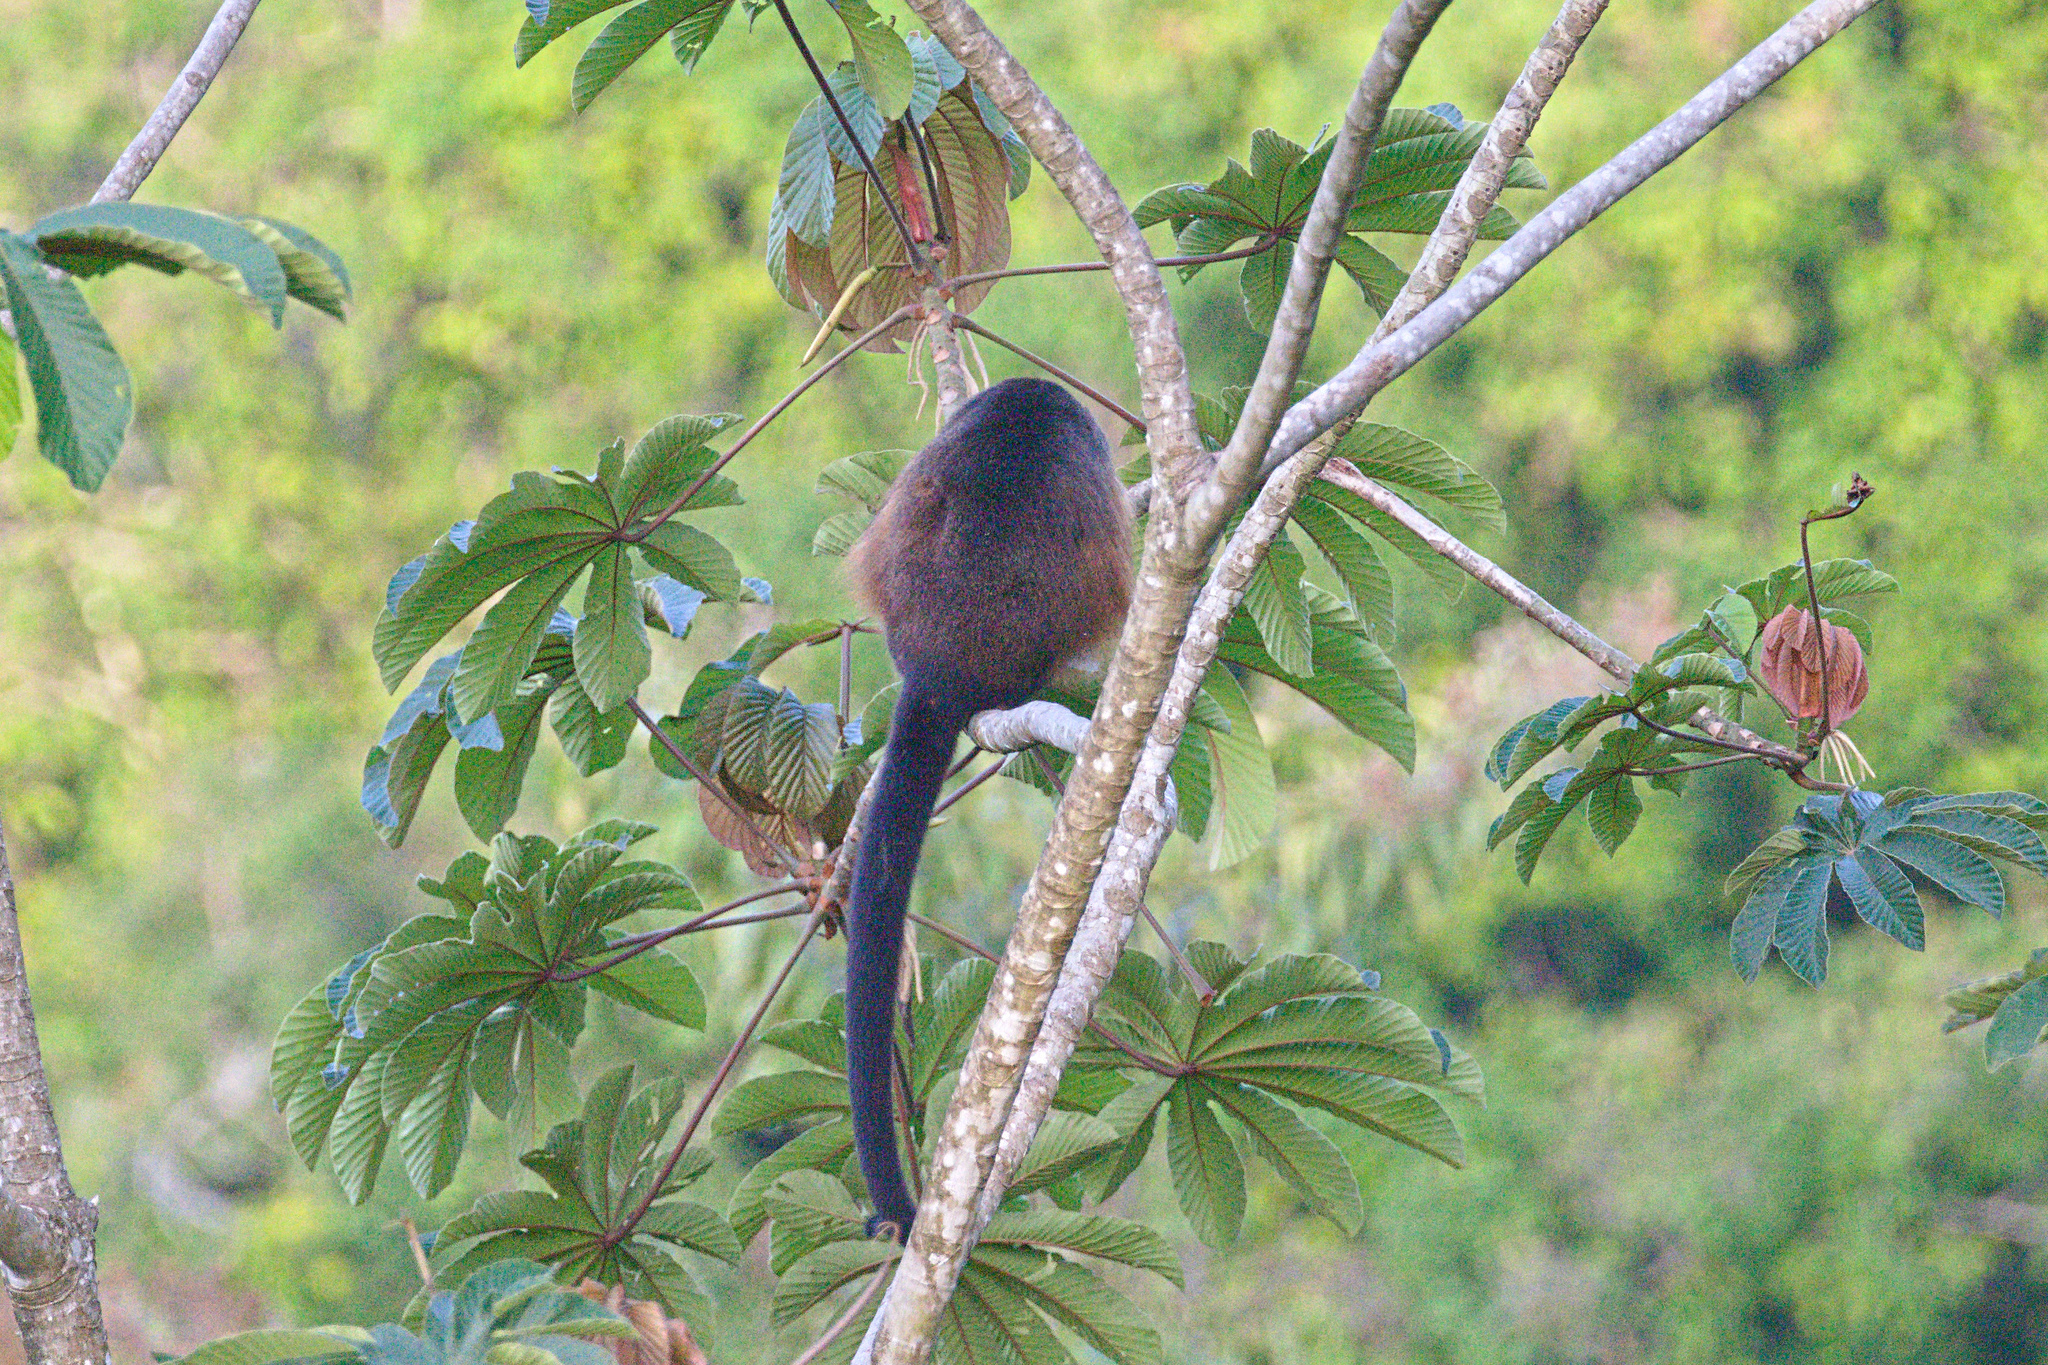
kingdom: Animalia
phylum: Chordata
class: Mammalia
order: Primates
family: Atelidae
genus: Alouatta
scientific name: Alouatta palliata
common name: Mantled howler
